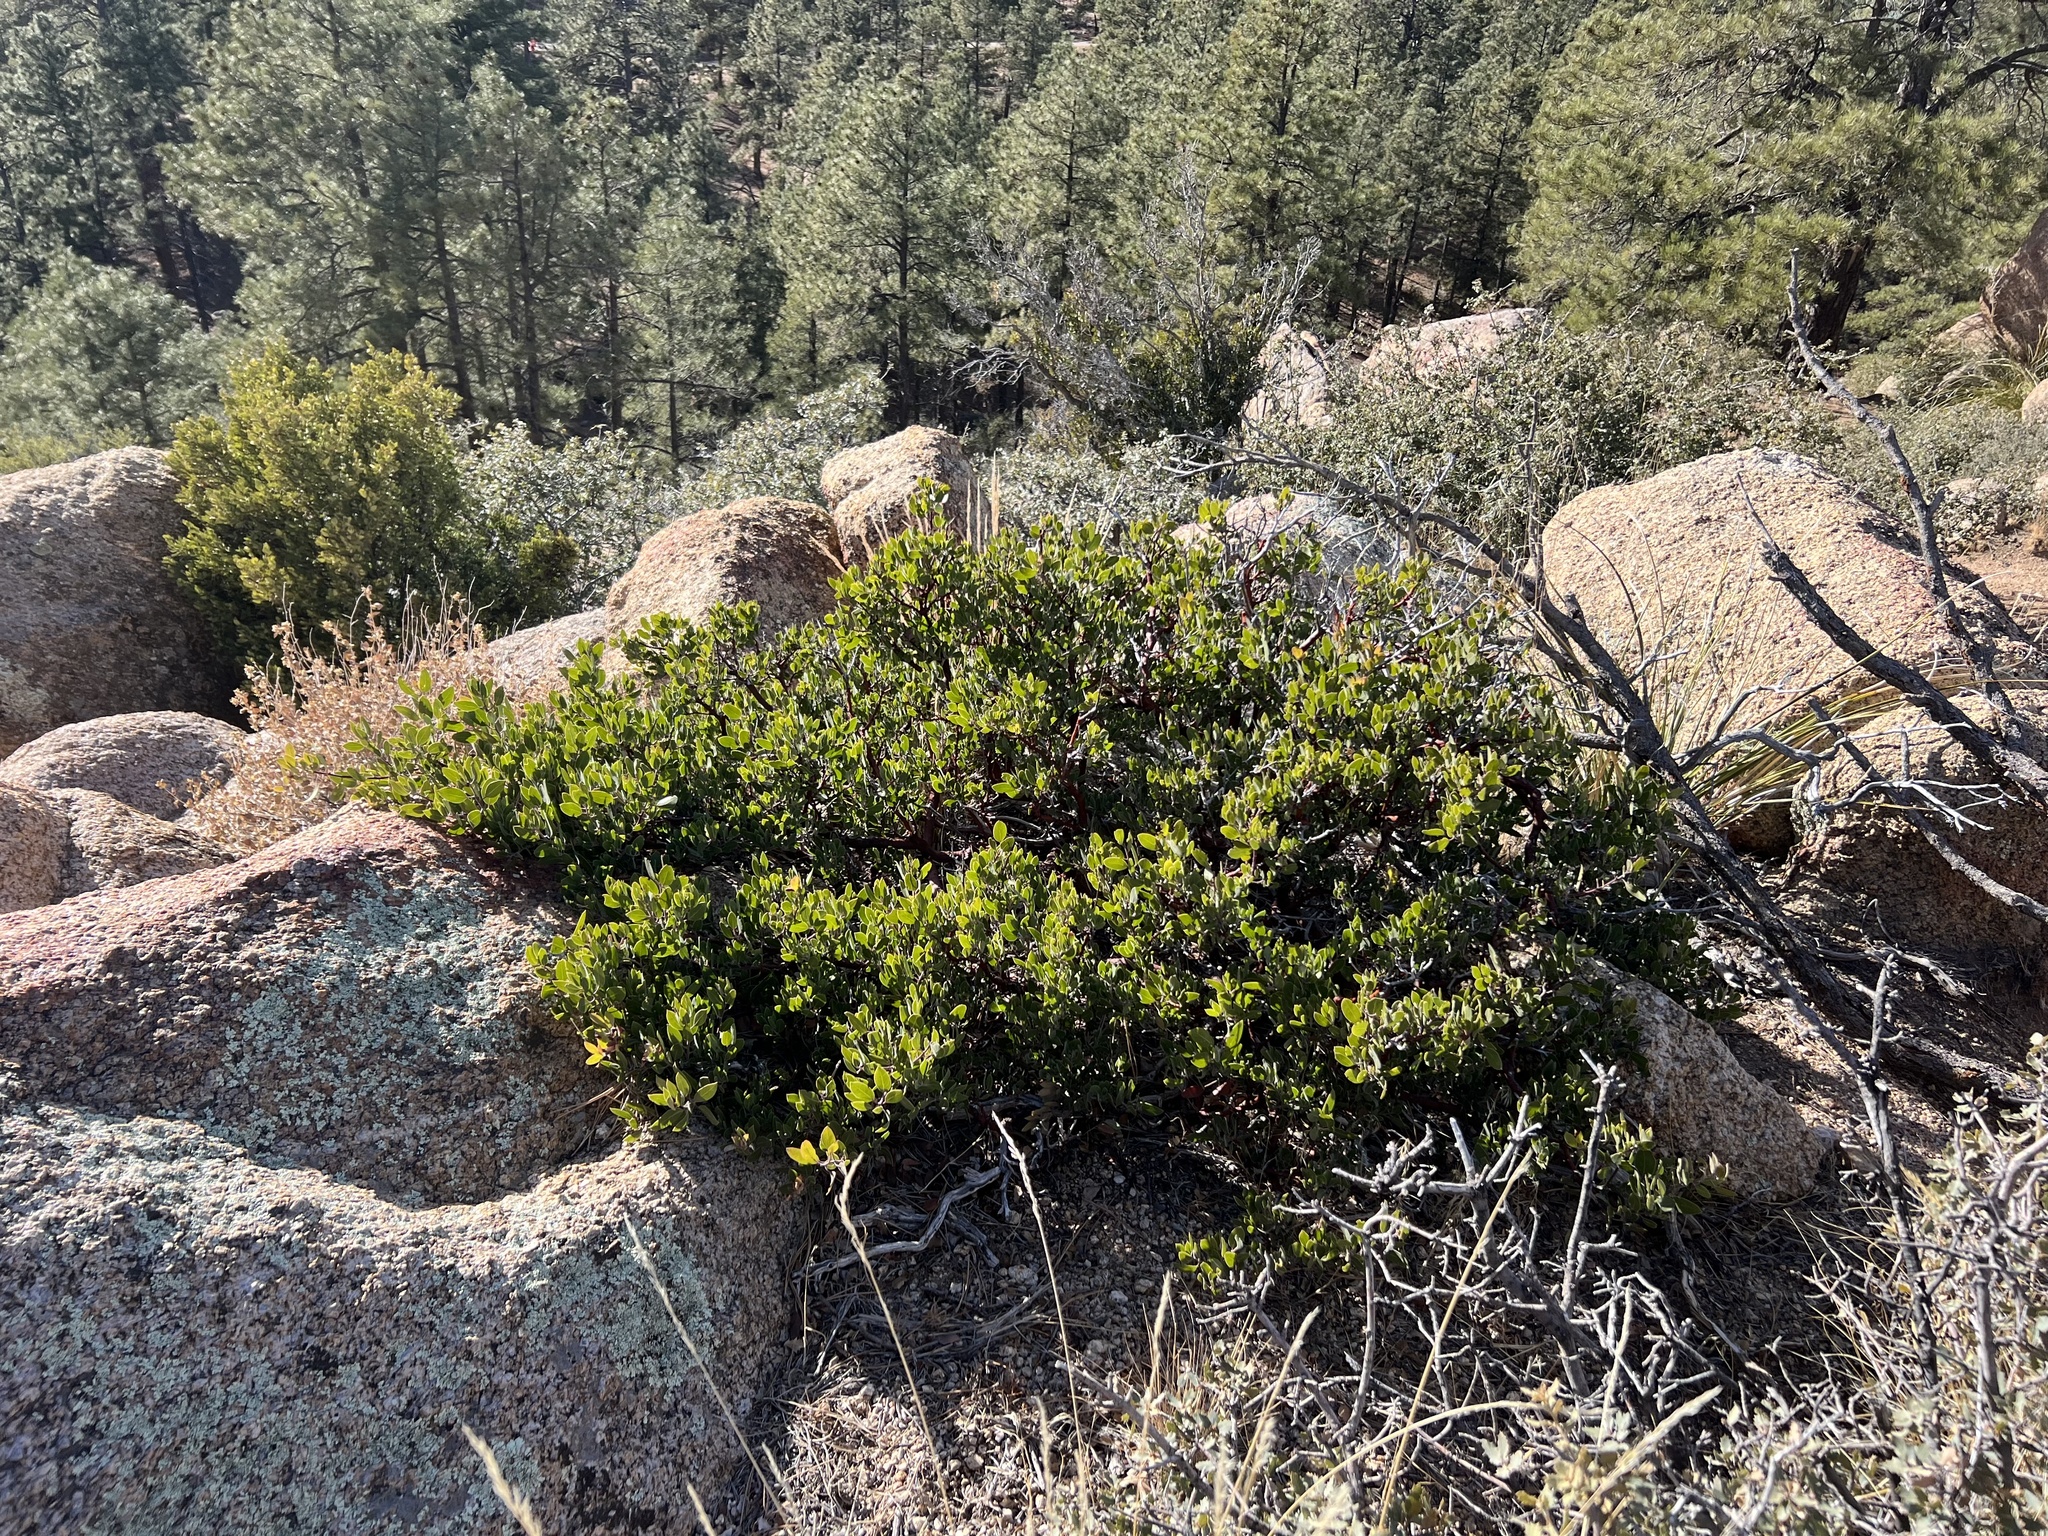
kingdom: Plantae
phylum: Tracheophyta
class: Magnoliopsida
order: Ericales
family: Ericaceae
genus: Arctostaphylos
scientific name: Arctostaphylos pungens
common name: Mexican manzanita
